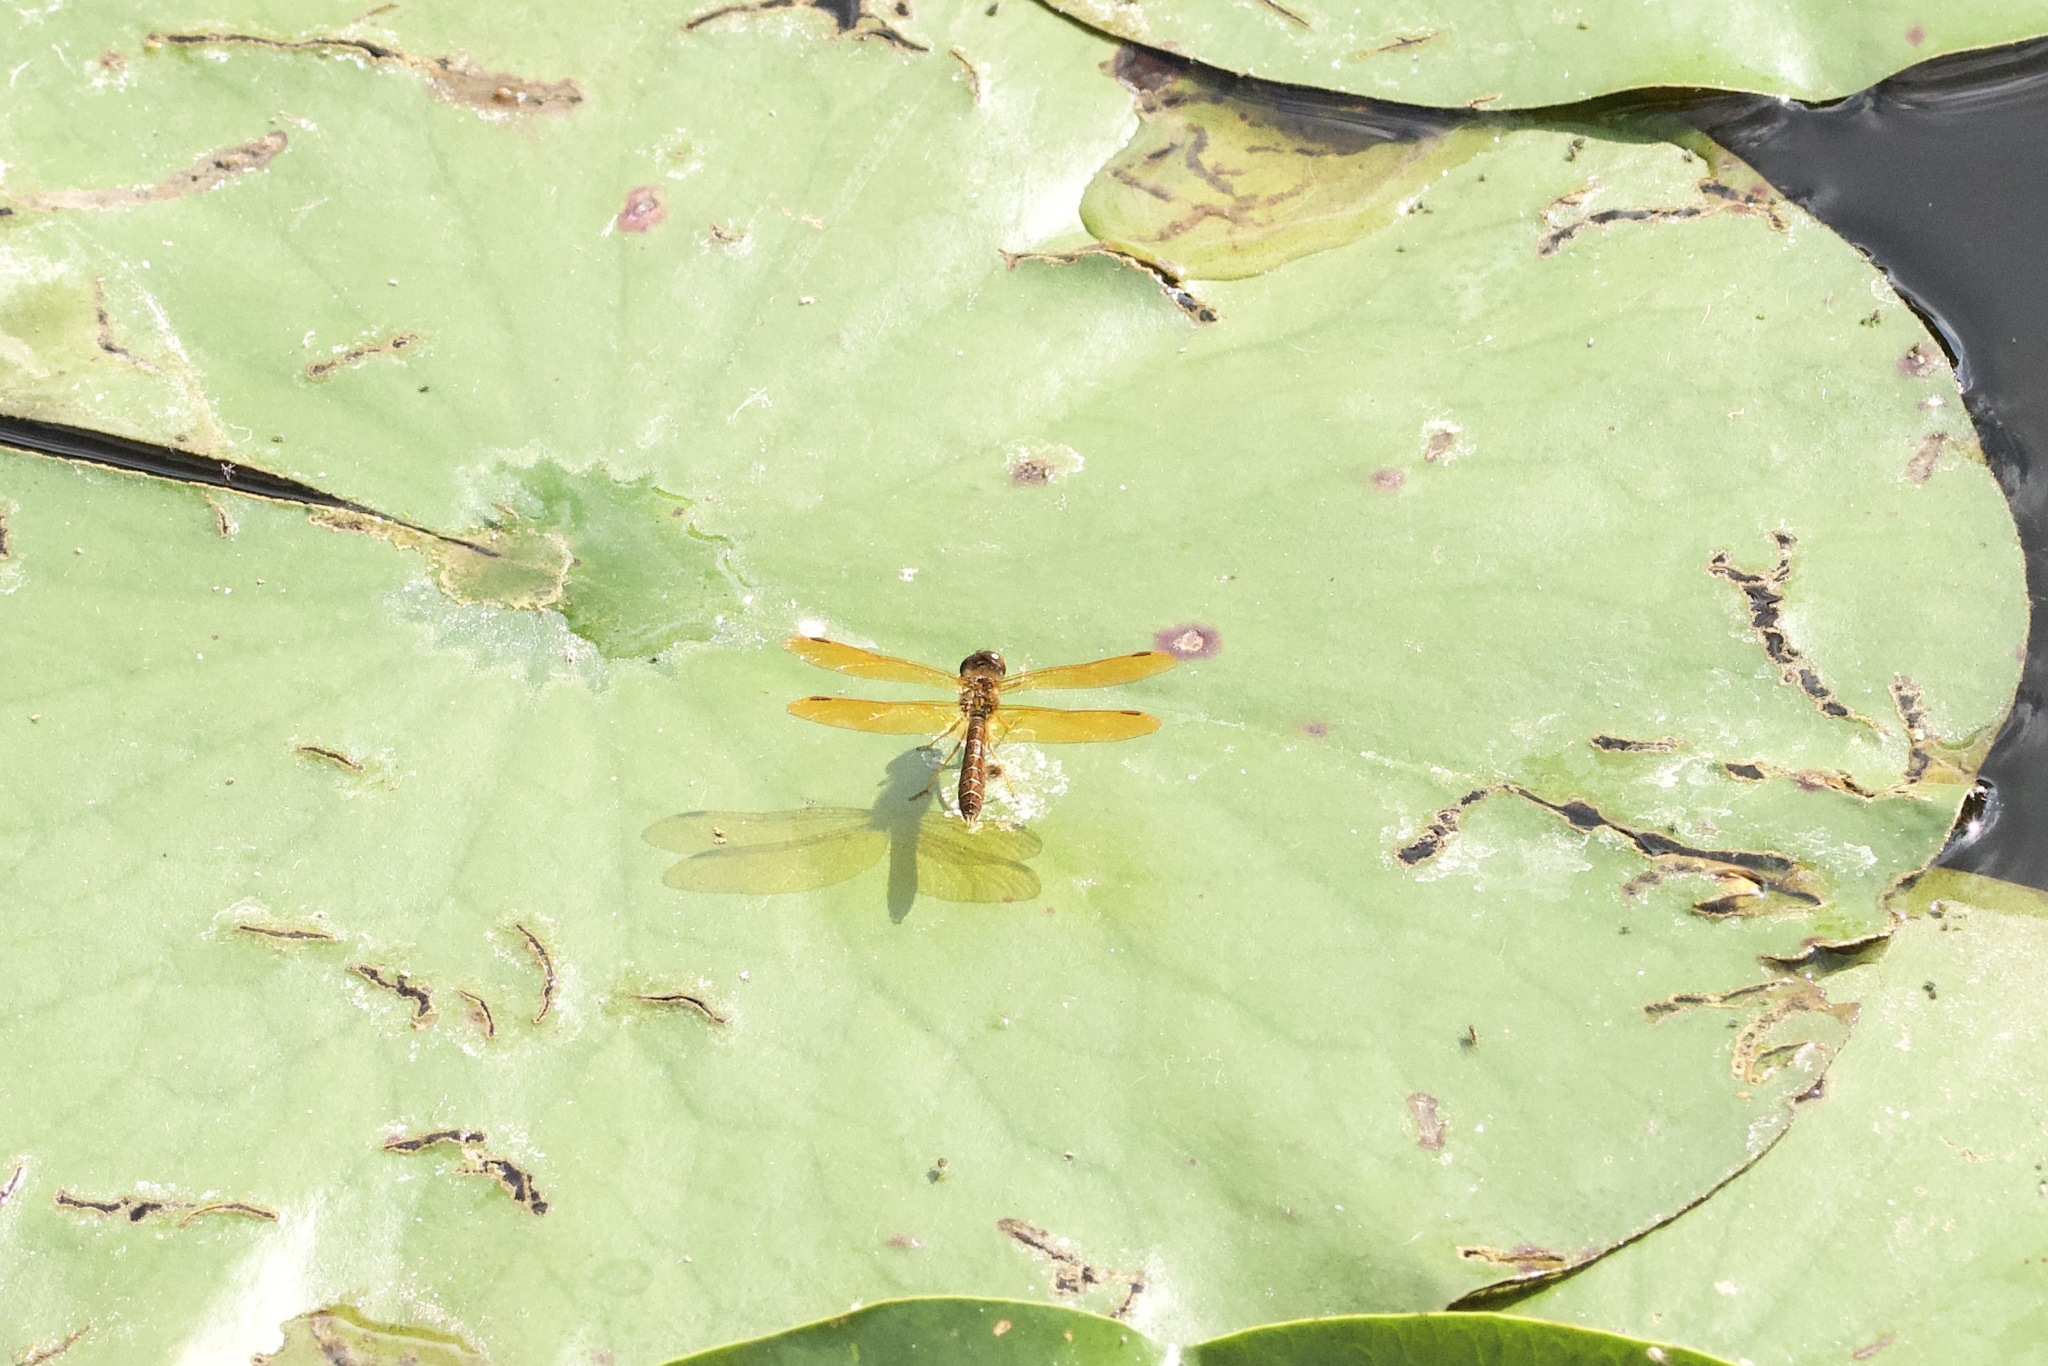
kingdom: Animalia
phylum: Arthropoda
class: Insecta
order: Odonata
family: Libellulidae
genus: Perithemis
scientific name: Perithemis tenera
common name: Eastern amberwing
